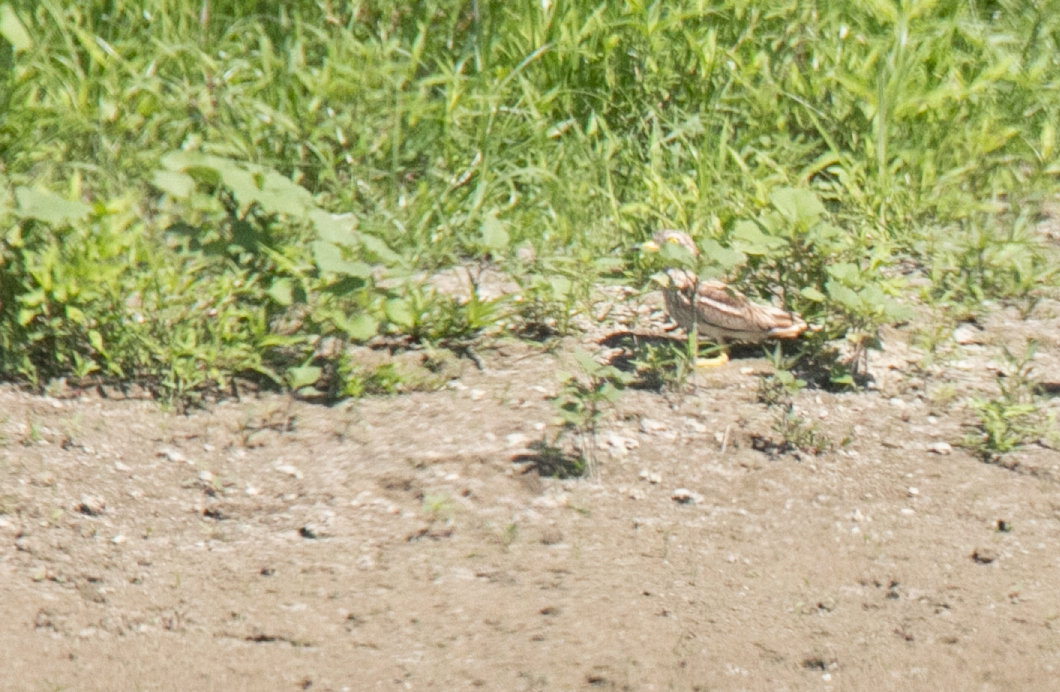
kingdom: Animalia
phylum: Chordata
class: Aves
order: Charadriiformes
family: Burhinidae
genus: Burhinus
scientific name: Burhinus oedicnemus
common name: Eurasian stone-curlew
